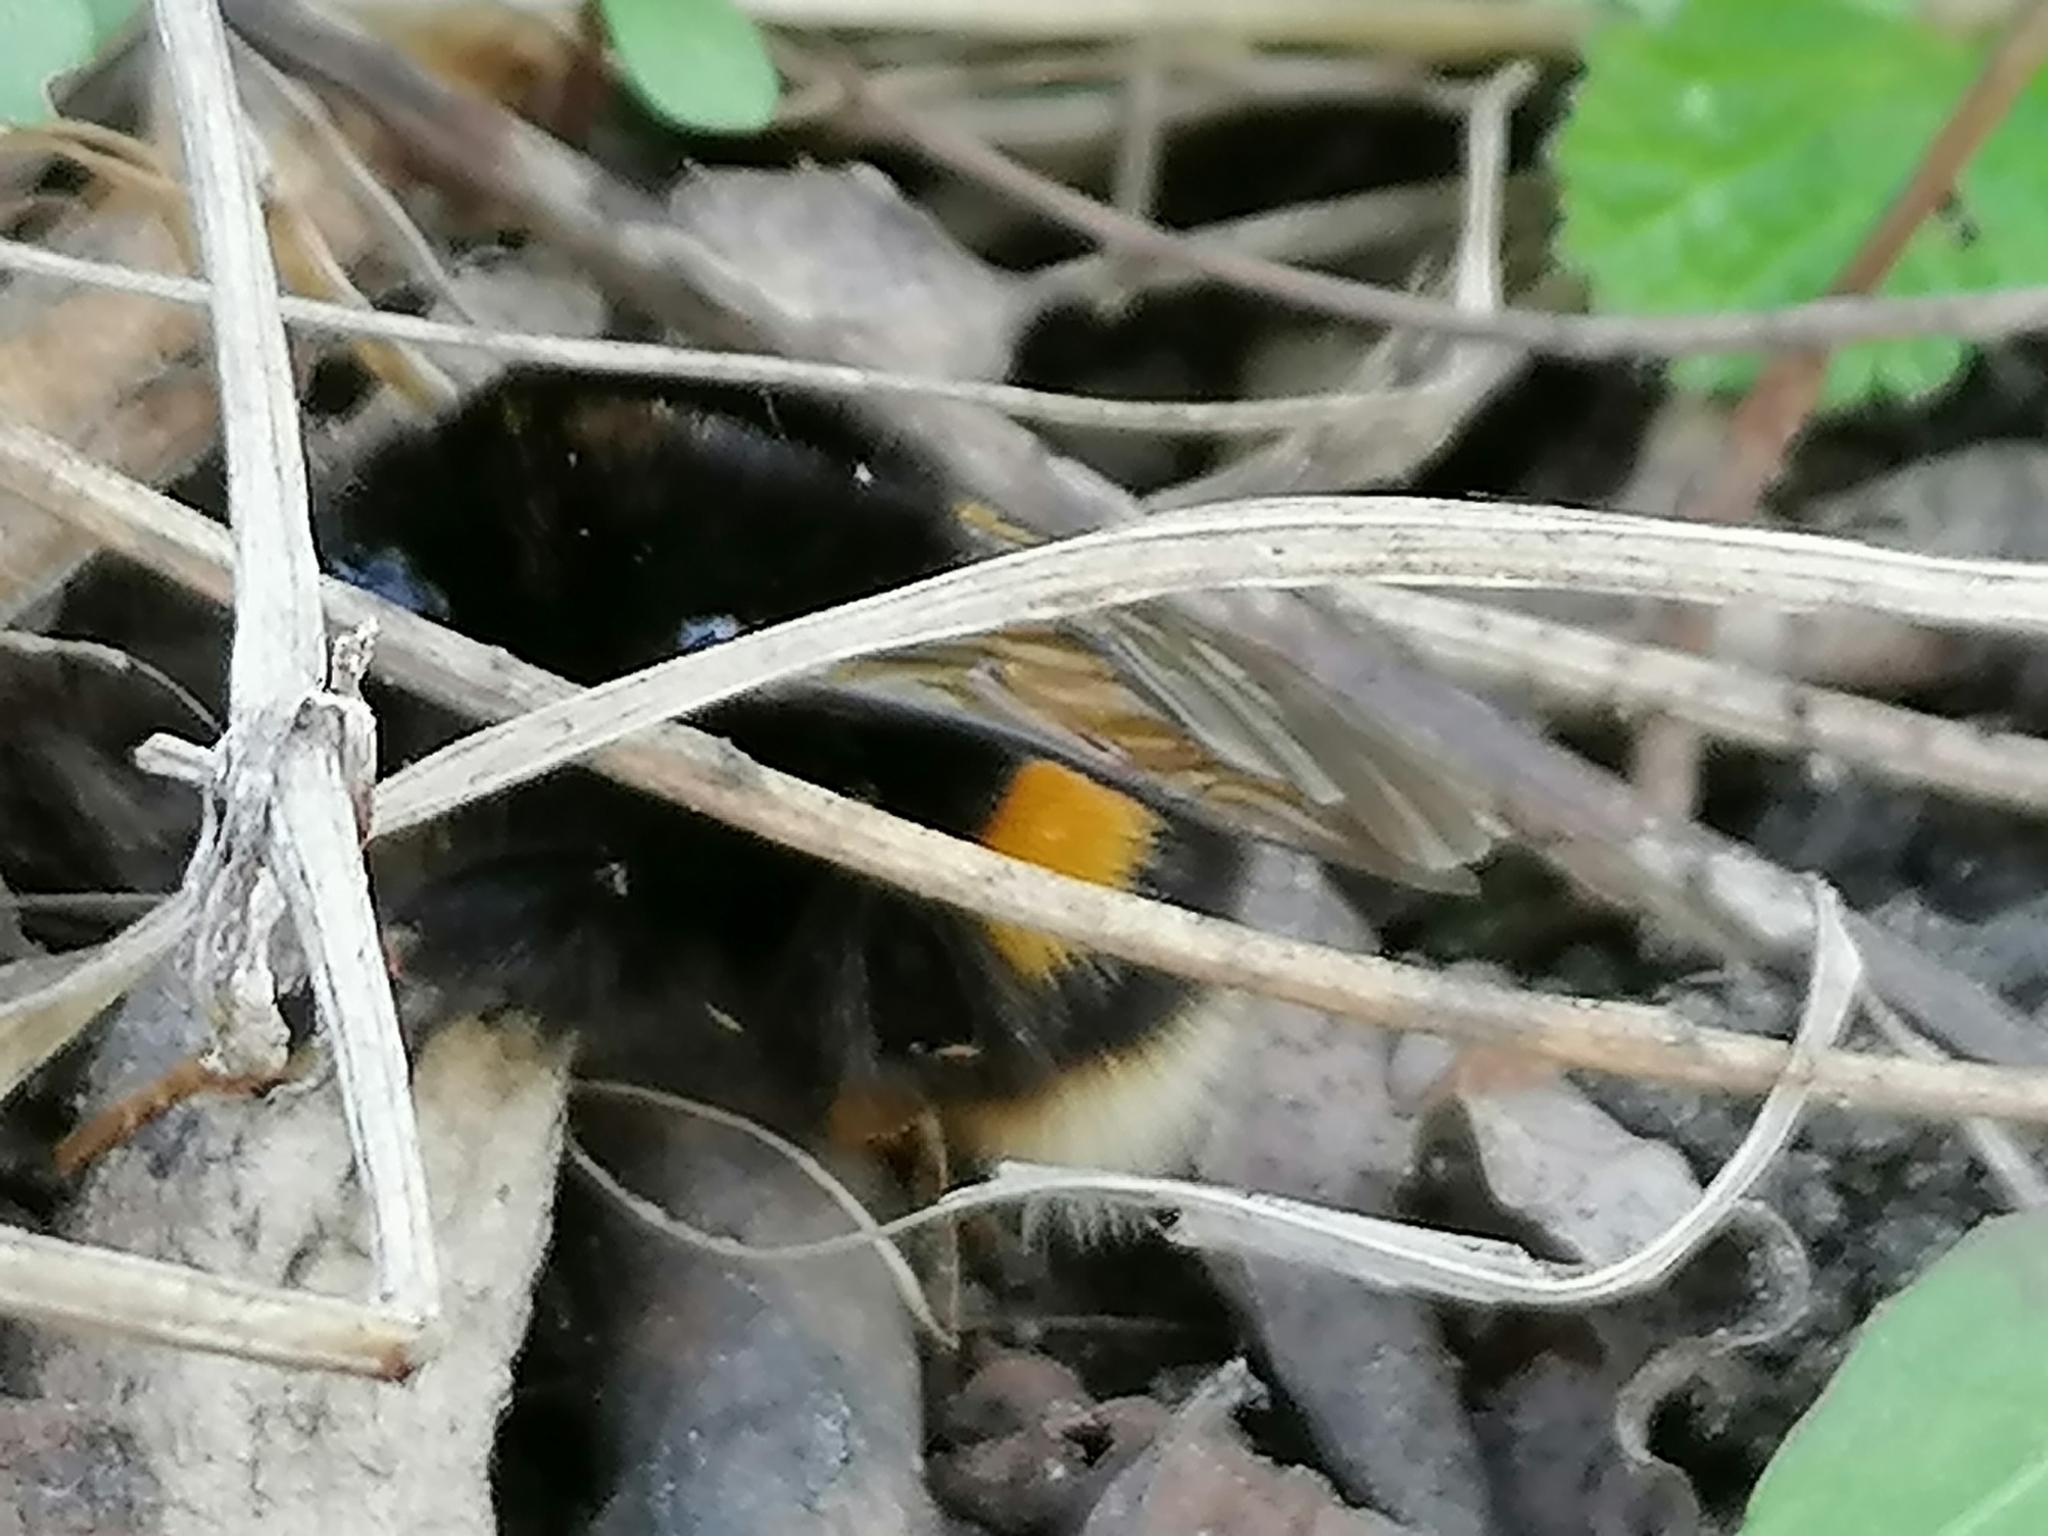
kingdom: Animalia
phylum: Arthropoda
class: Insecta
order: Hymenoptera
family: Apidae
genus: Bombus
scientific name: Bombus terrestris
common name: Buff-tailed bumblebee
